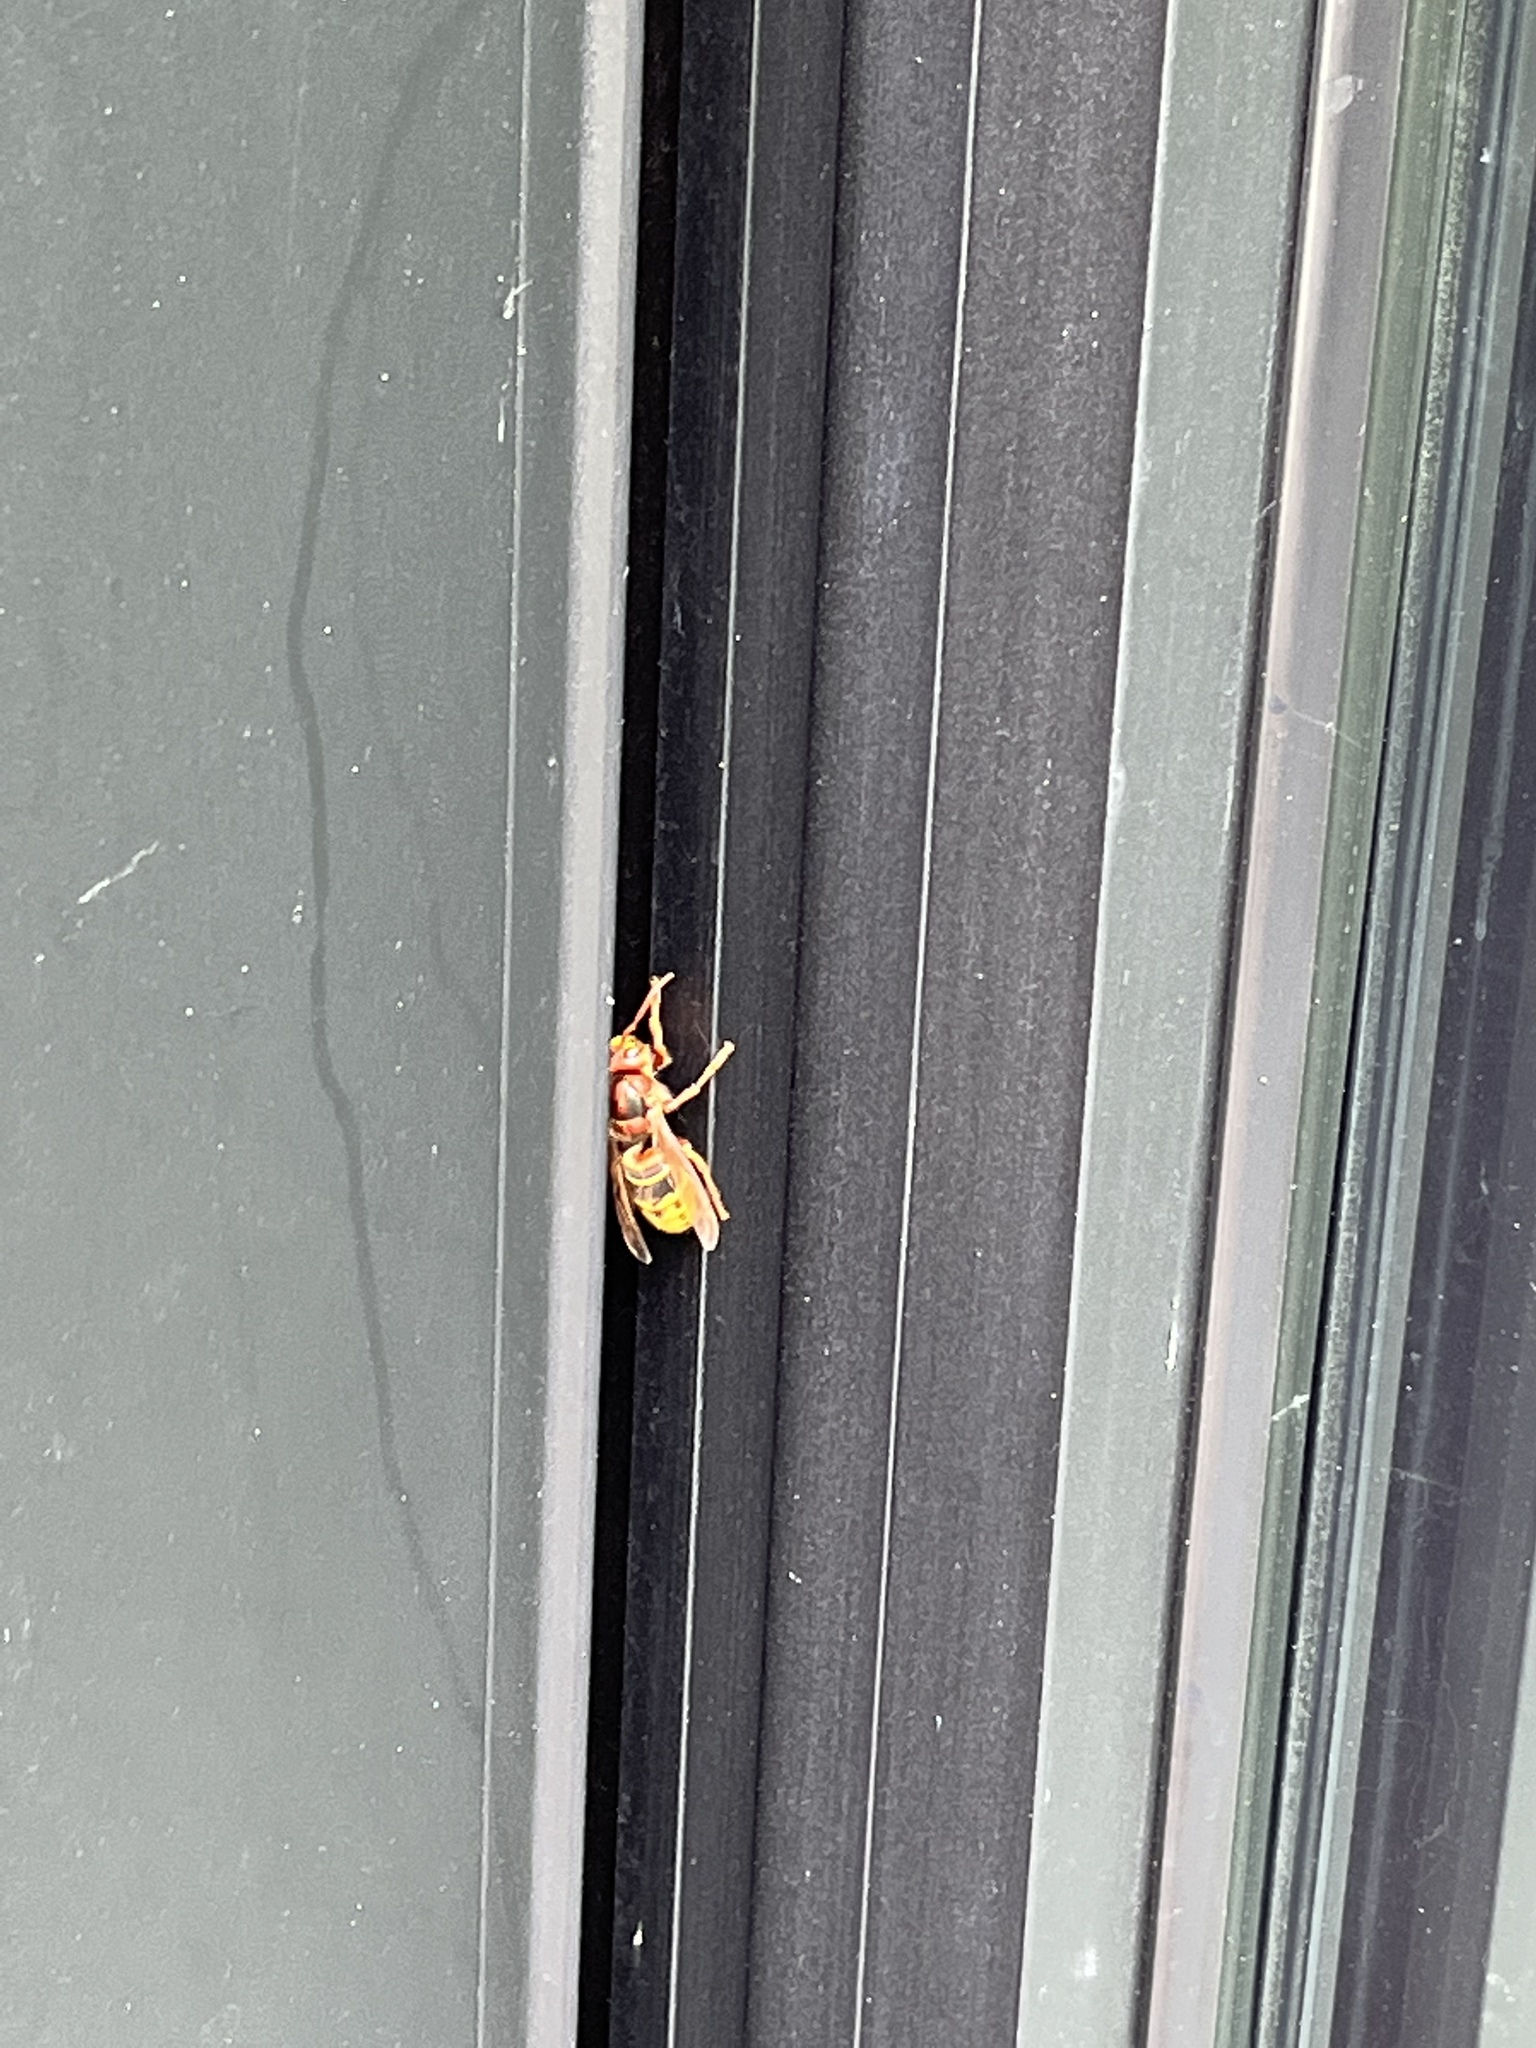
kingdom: Animalia
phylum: Arthropoda
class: Insecta
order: Hymenoptera
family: Vespidae
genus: Vespa
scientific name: Vespa crabro
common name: Hornet
